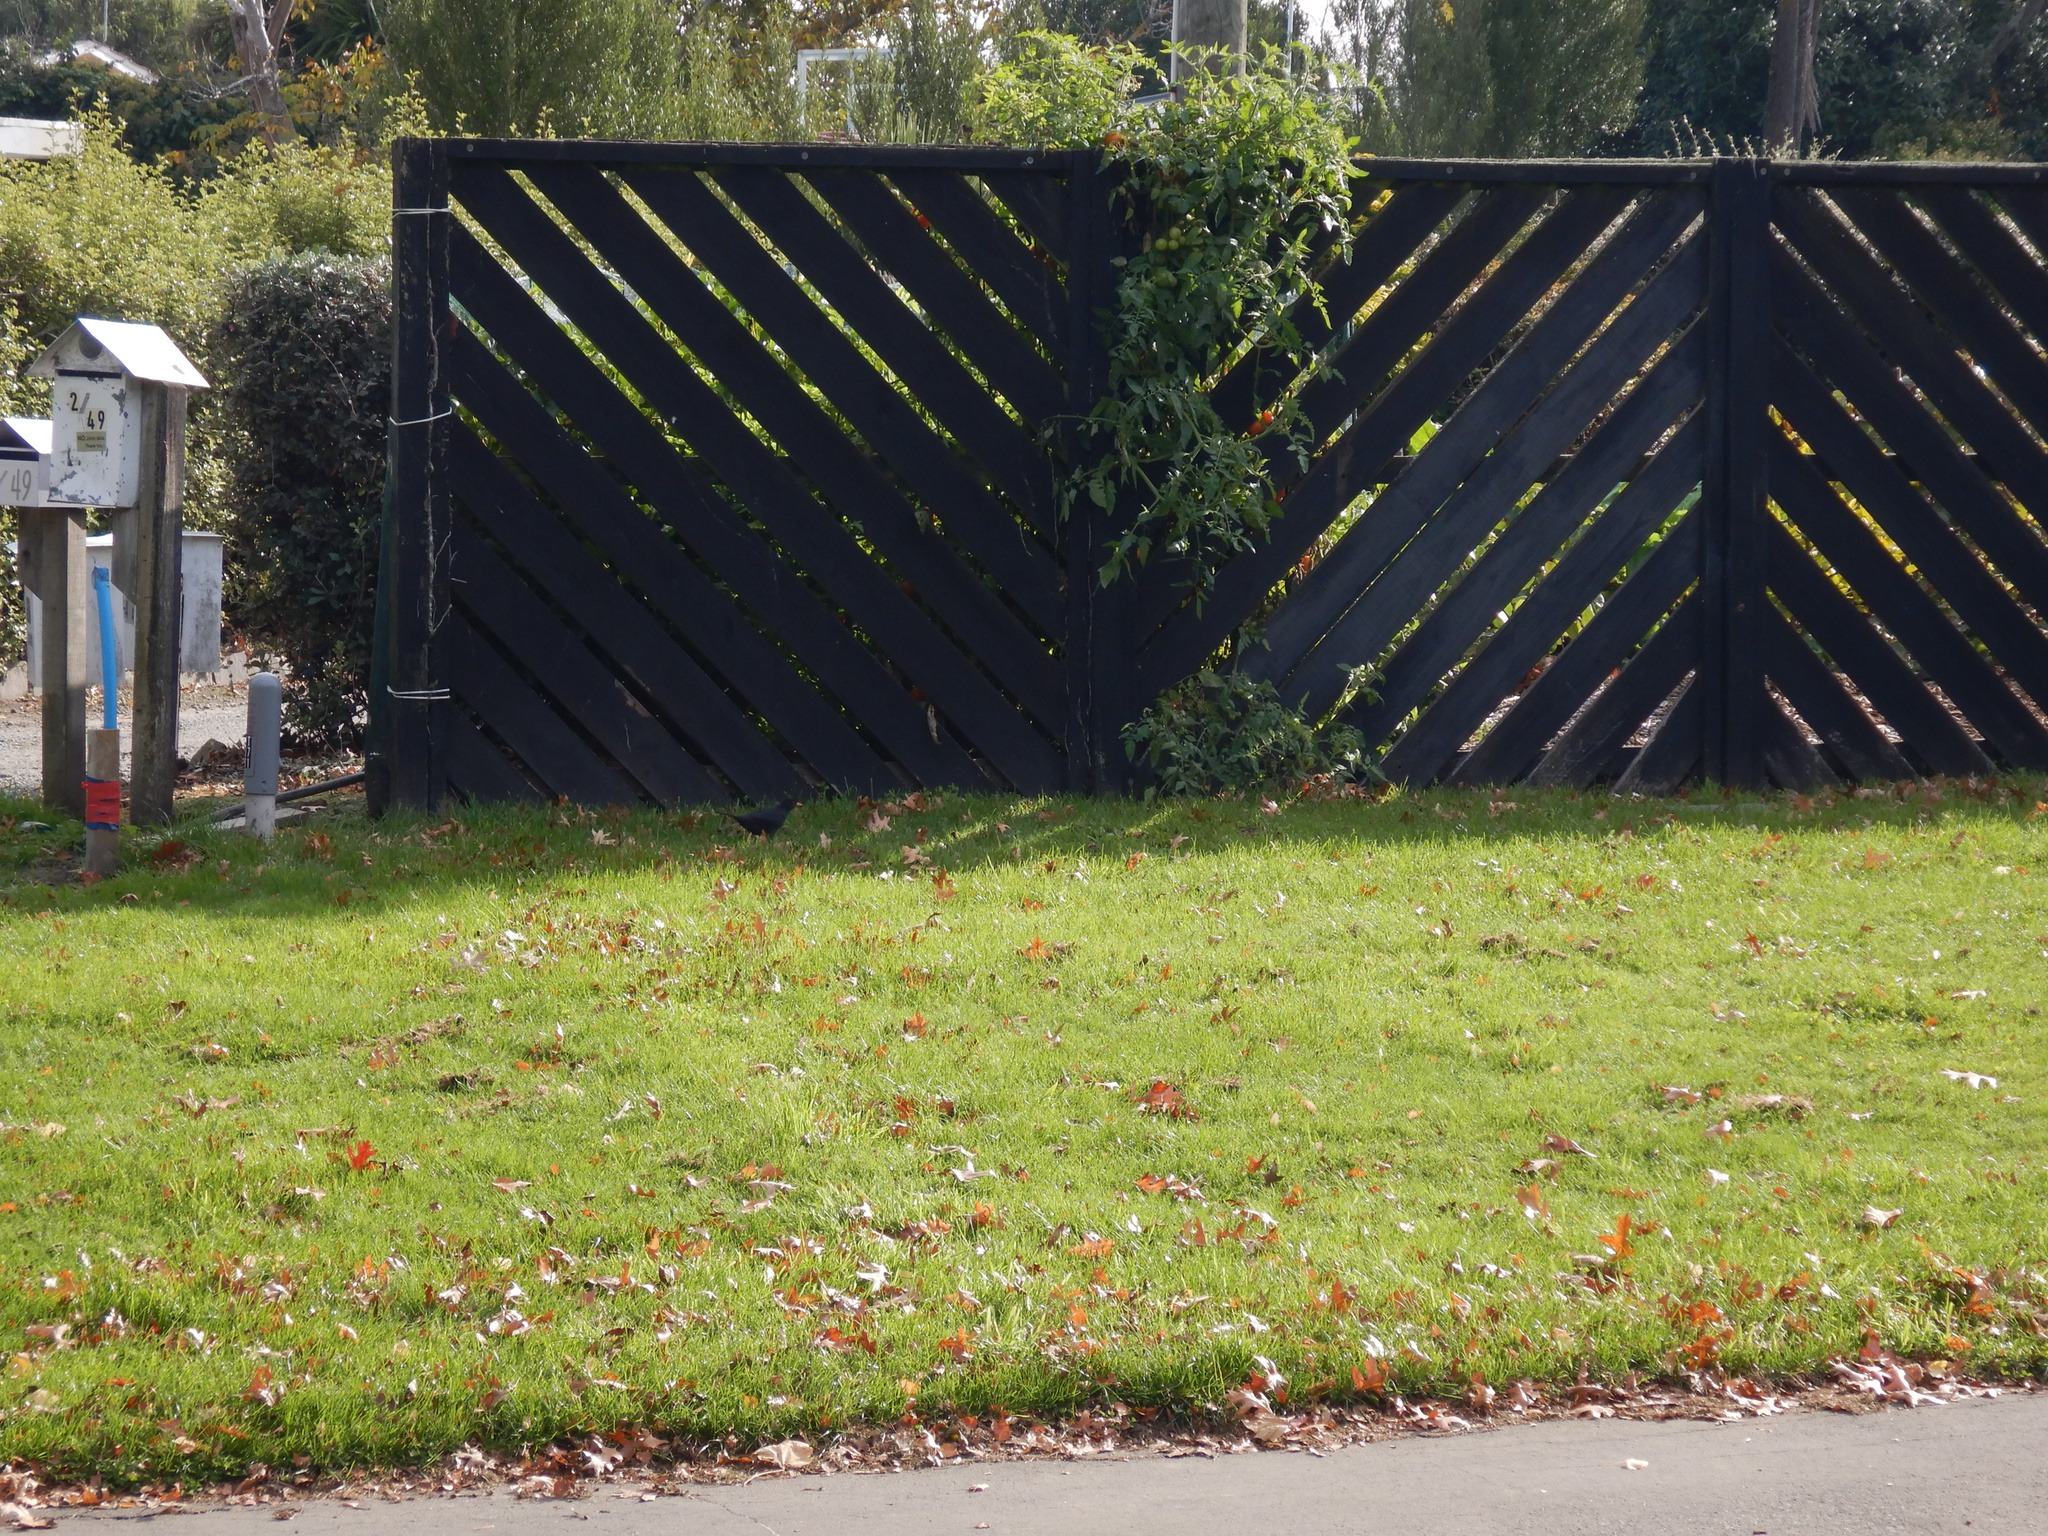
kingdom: Animalia
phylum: Chordata
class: Aves
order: Passeriformes
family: Turdidae
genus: Turdus
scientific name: Turdus merula
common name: Common blackbird
